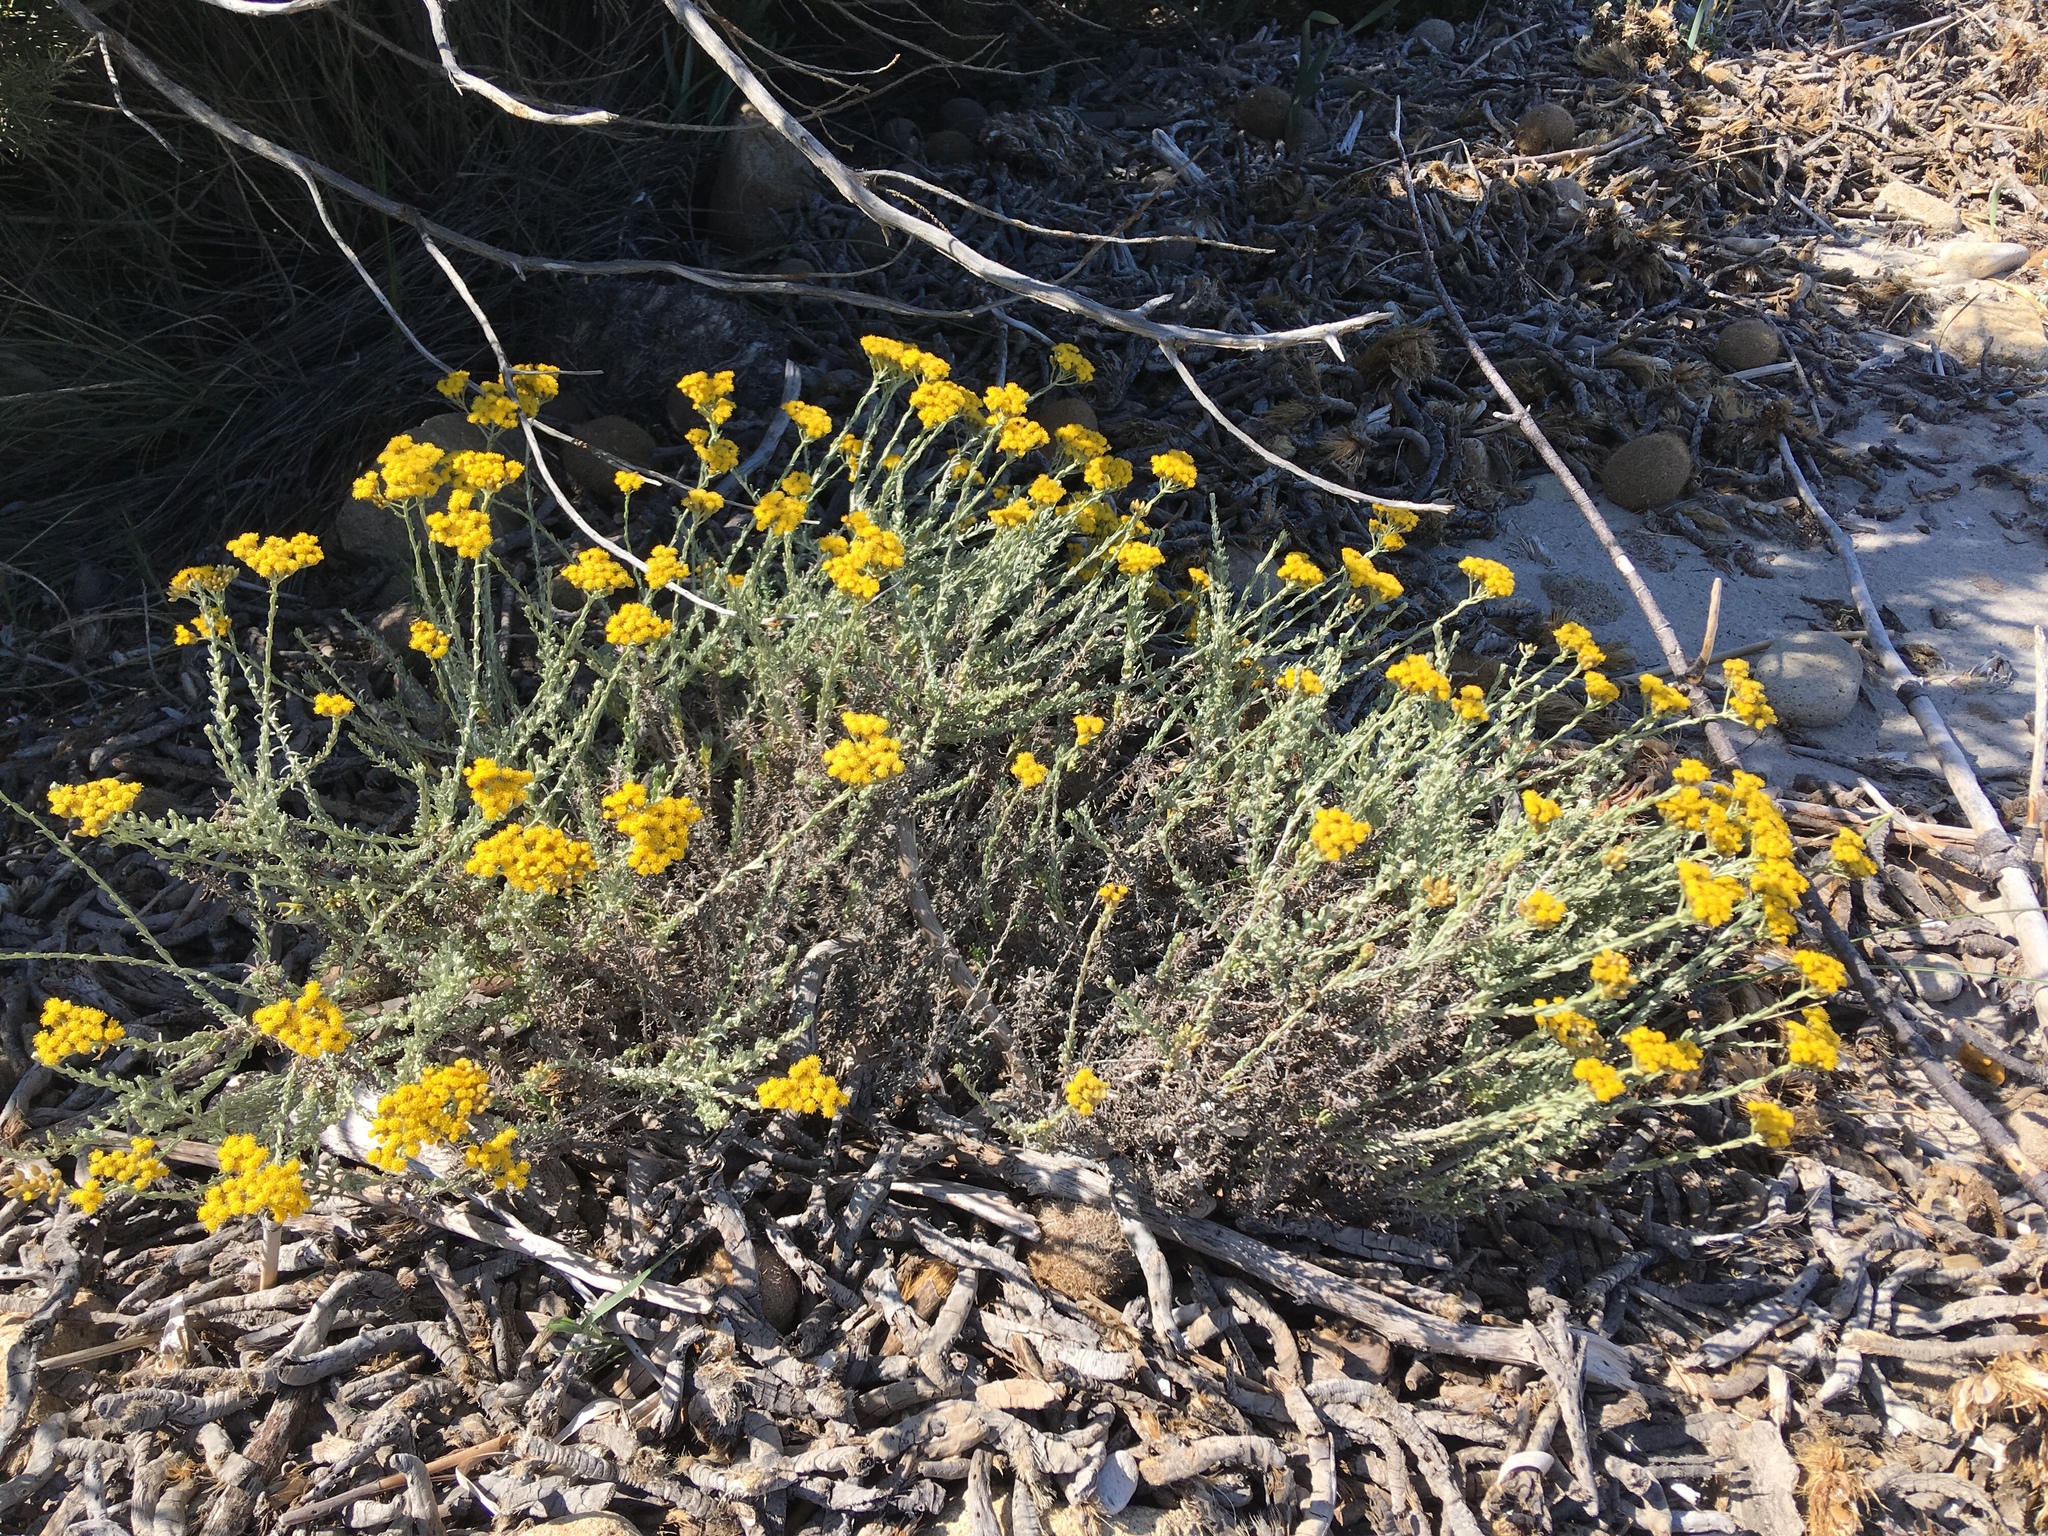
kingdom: Plantae
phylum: Tracheophyta
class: Magnoliopsida
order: Asterales
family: Asteraceae
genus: Helichrysum
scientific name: Helichrysum italicum
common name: Curryplant
